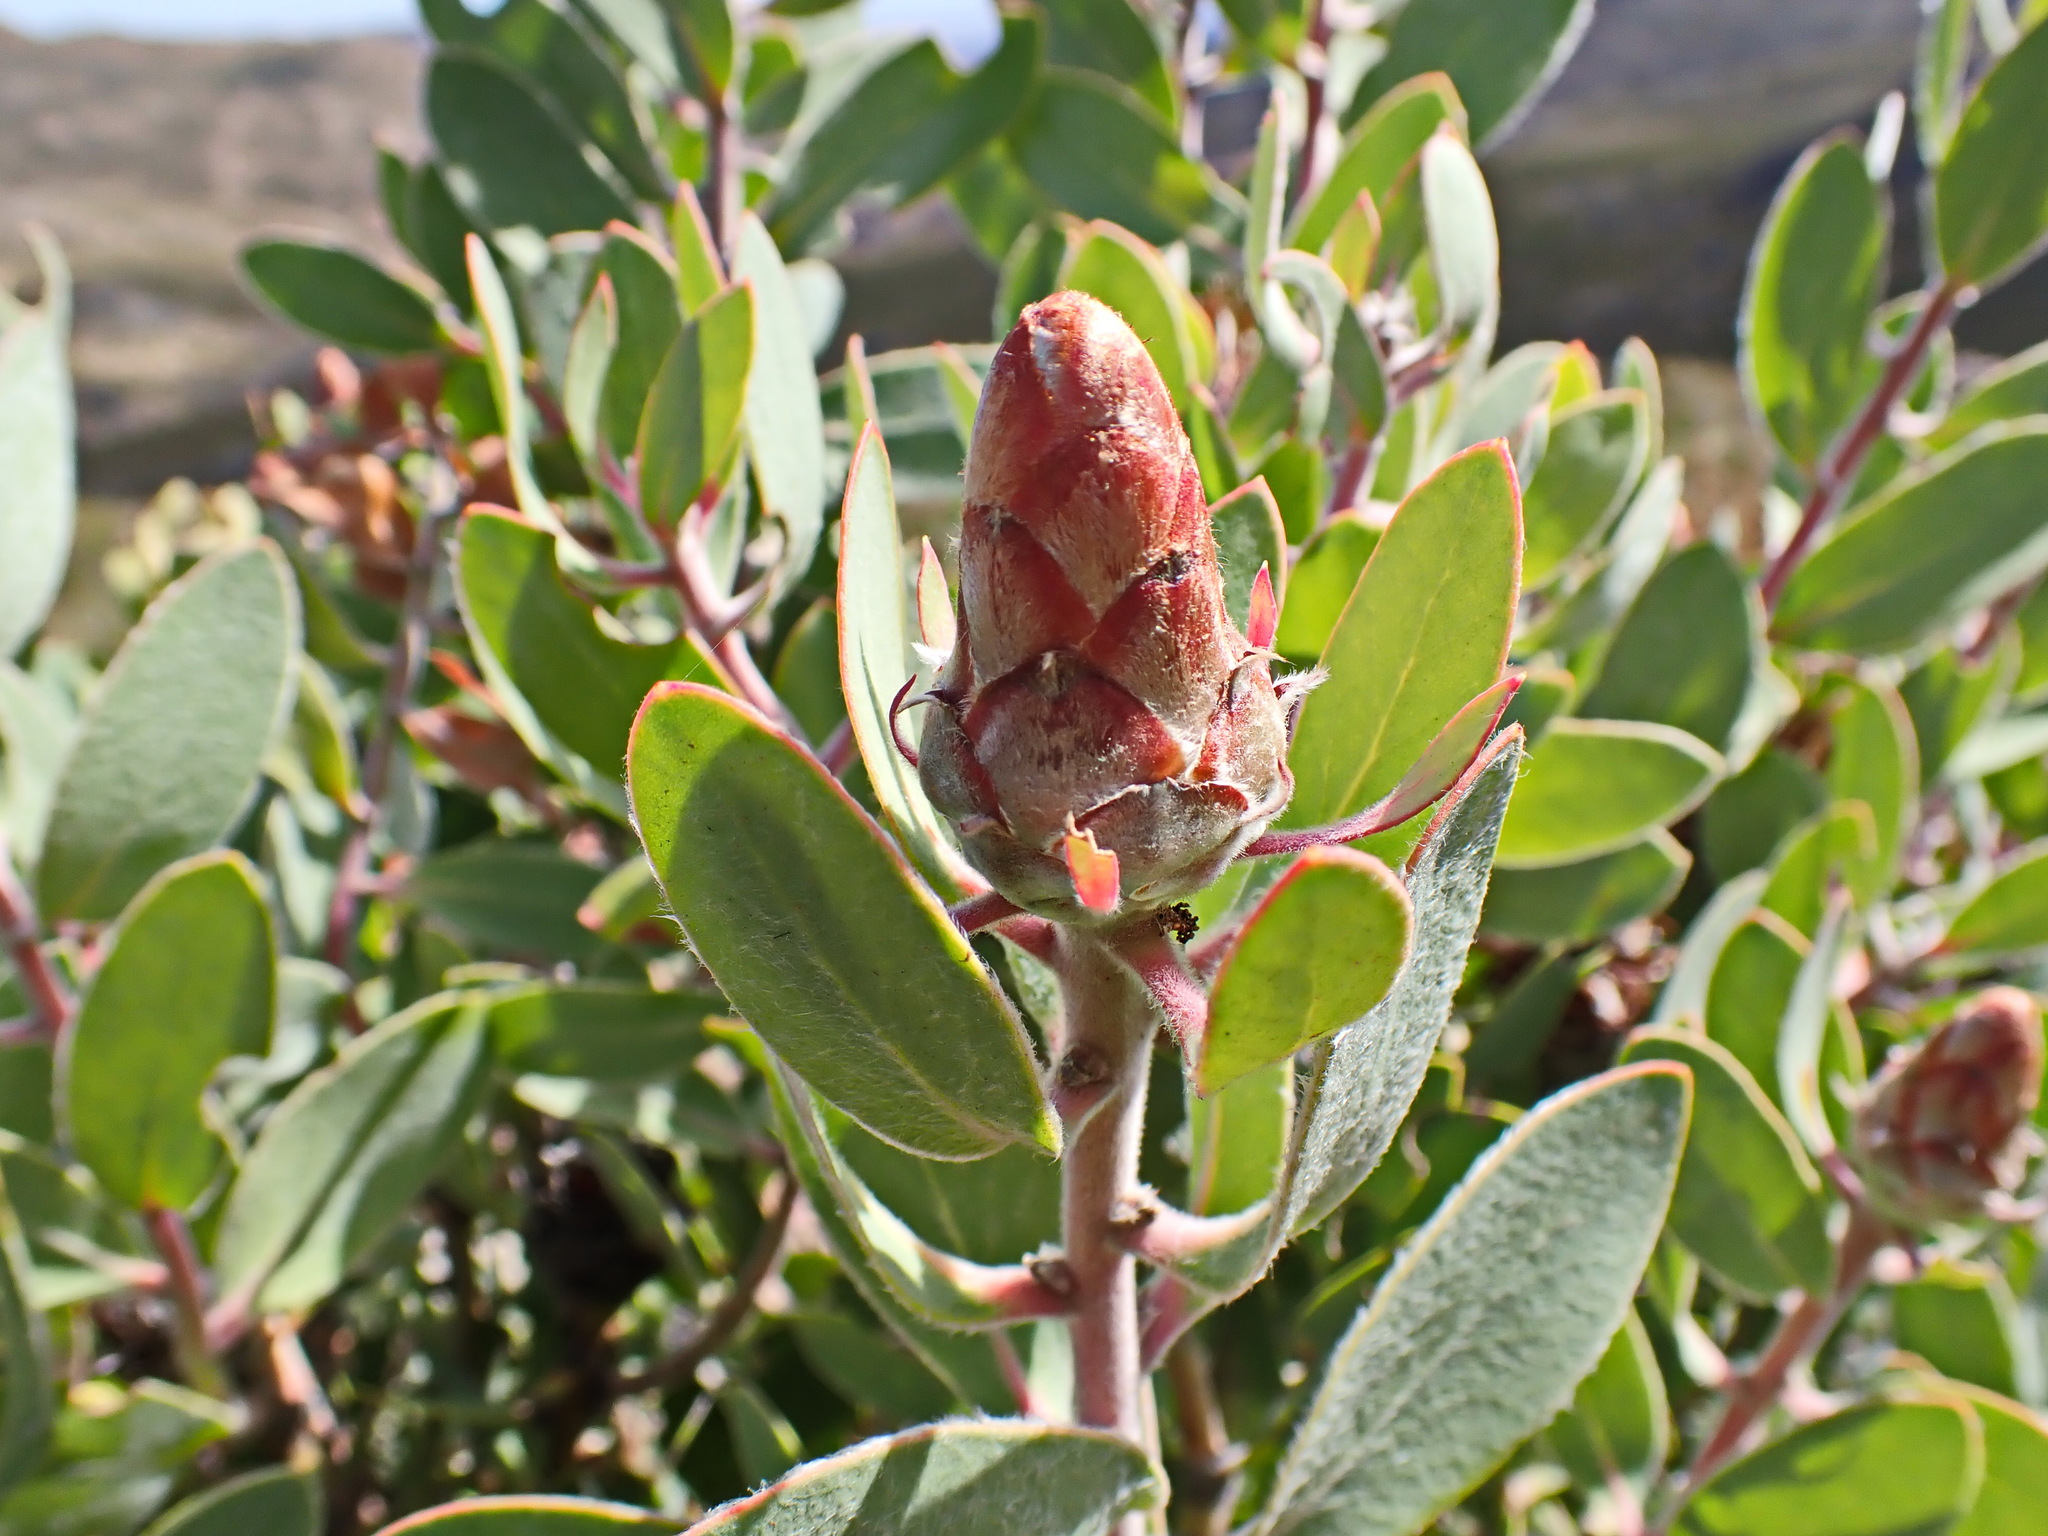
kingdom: Plantae
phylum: Tracheophyta
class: Magnoliopsida
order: Proteales
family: Proteaceae
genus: Protea
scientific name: Protea punctata
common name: Water sugarbush
